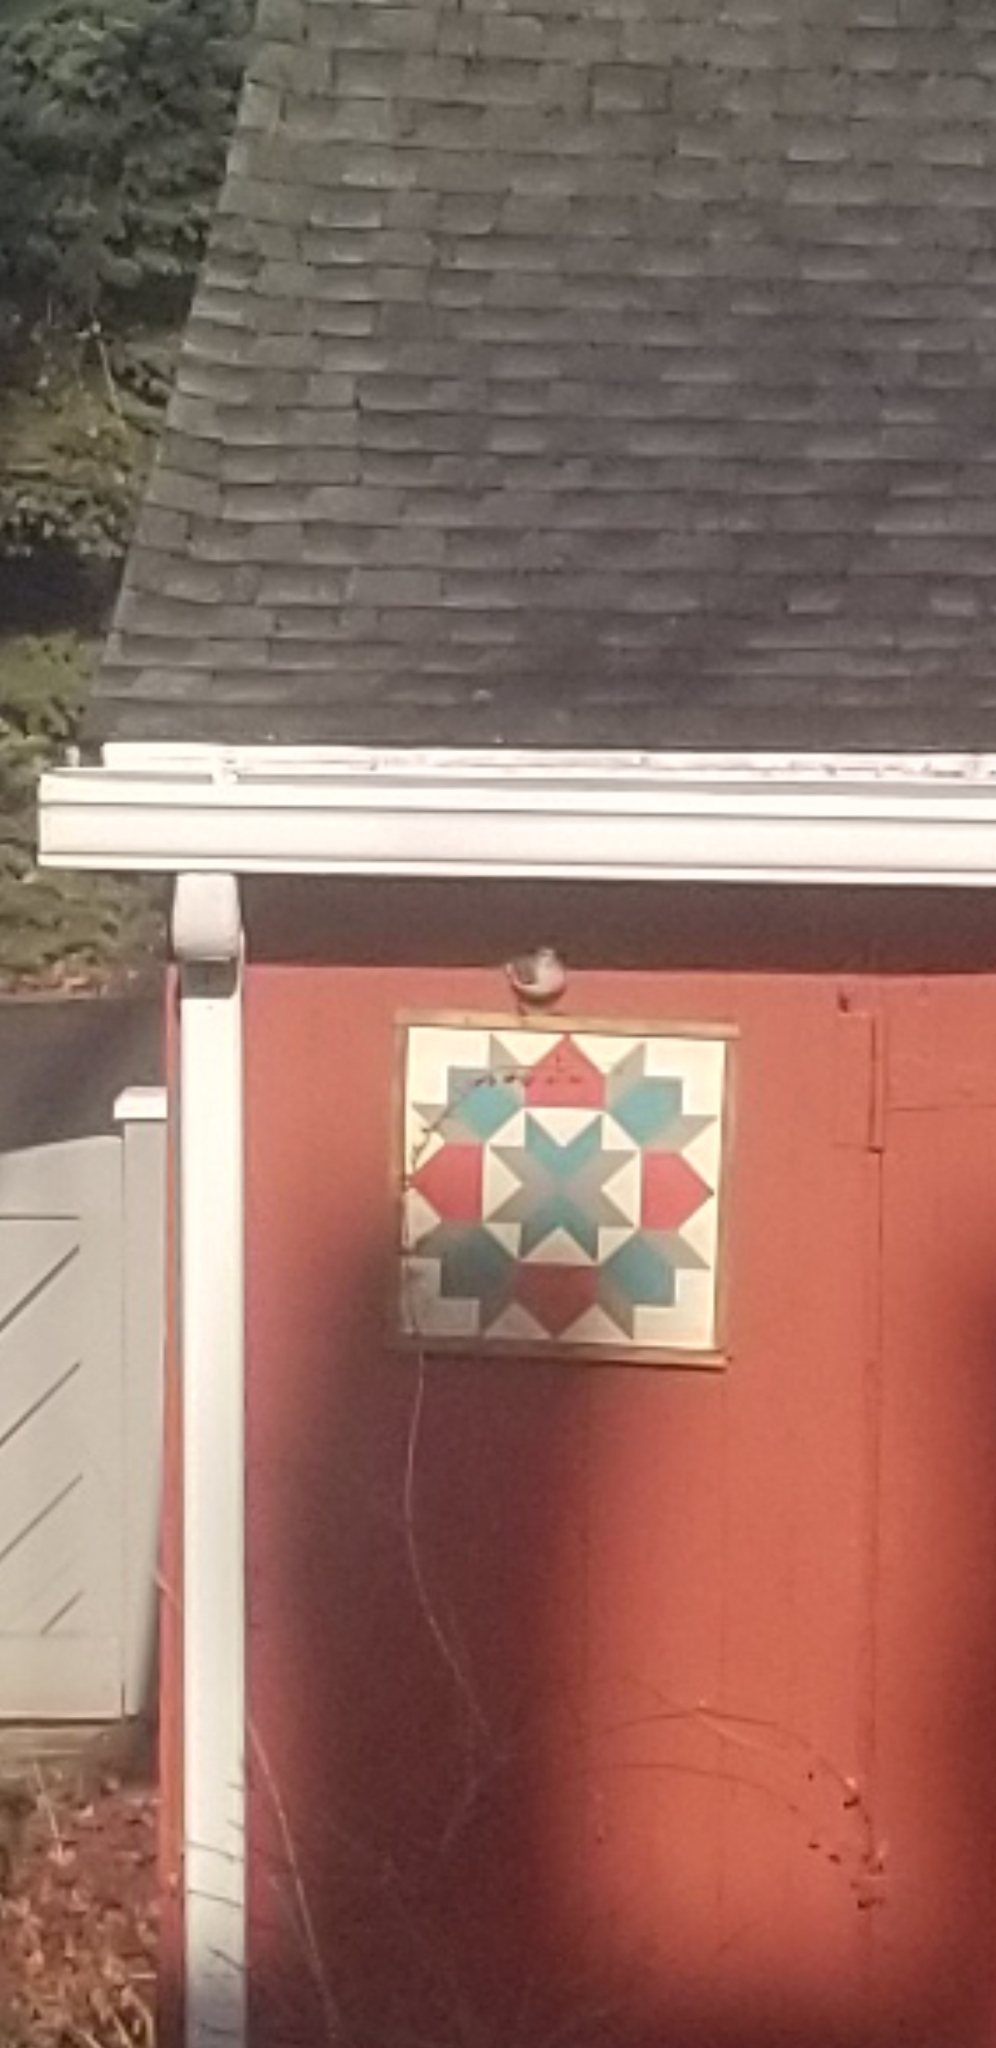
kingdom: Animalia
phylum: Chordata
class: Aves
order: Passeriformes
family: Mimidae
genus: Mimus
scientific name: Mimus polyglottos
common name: Northern mockingbird
